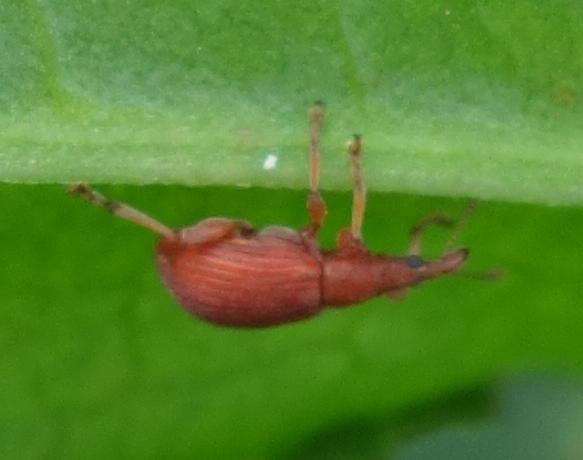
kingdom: Animalia
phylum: Arthropoda
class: Insecta
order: Coleoptera
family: Apionidae
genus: Apion
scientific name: Apion frumentarium
